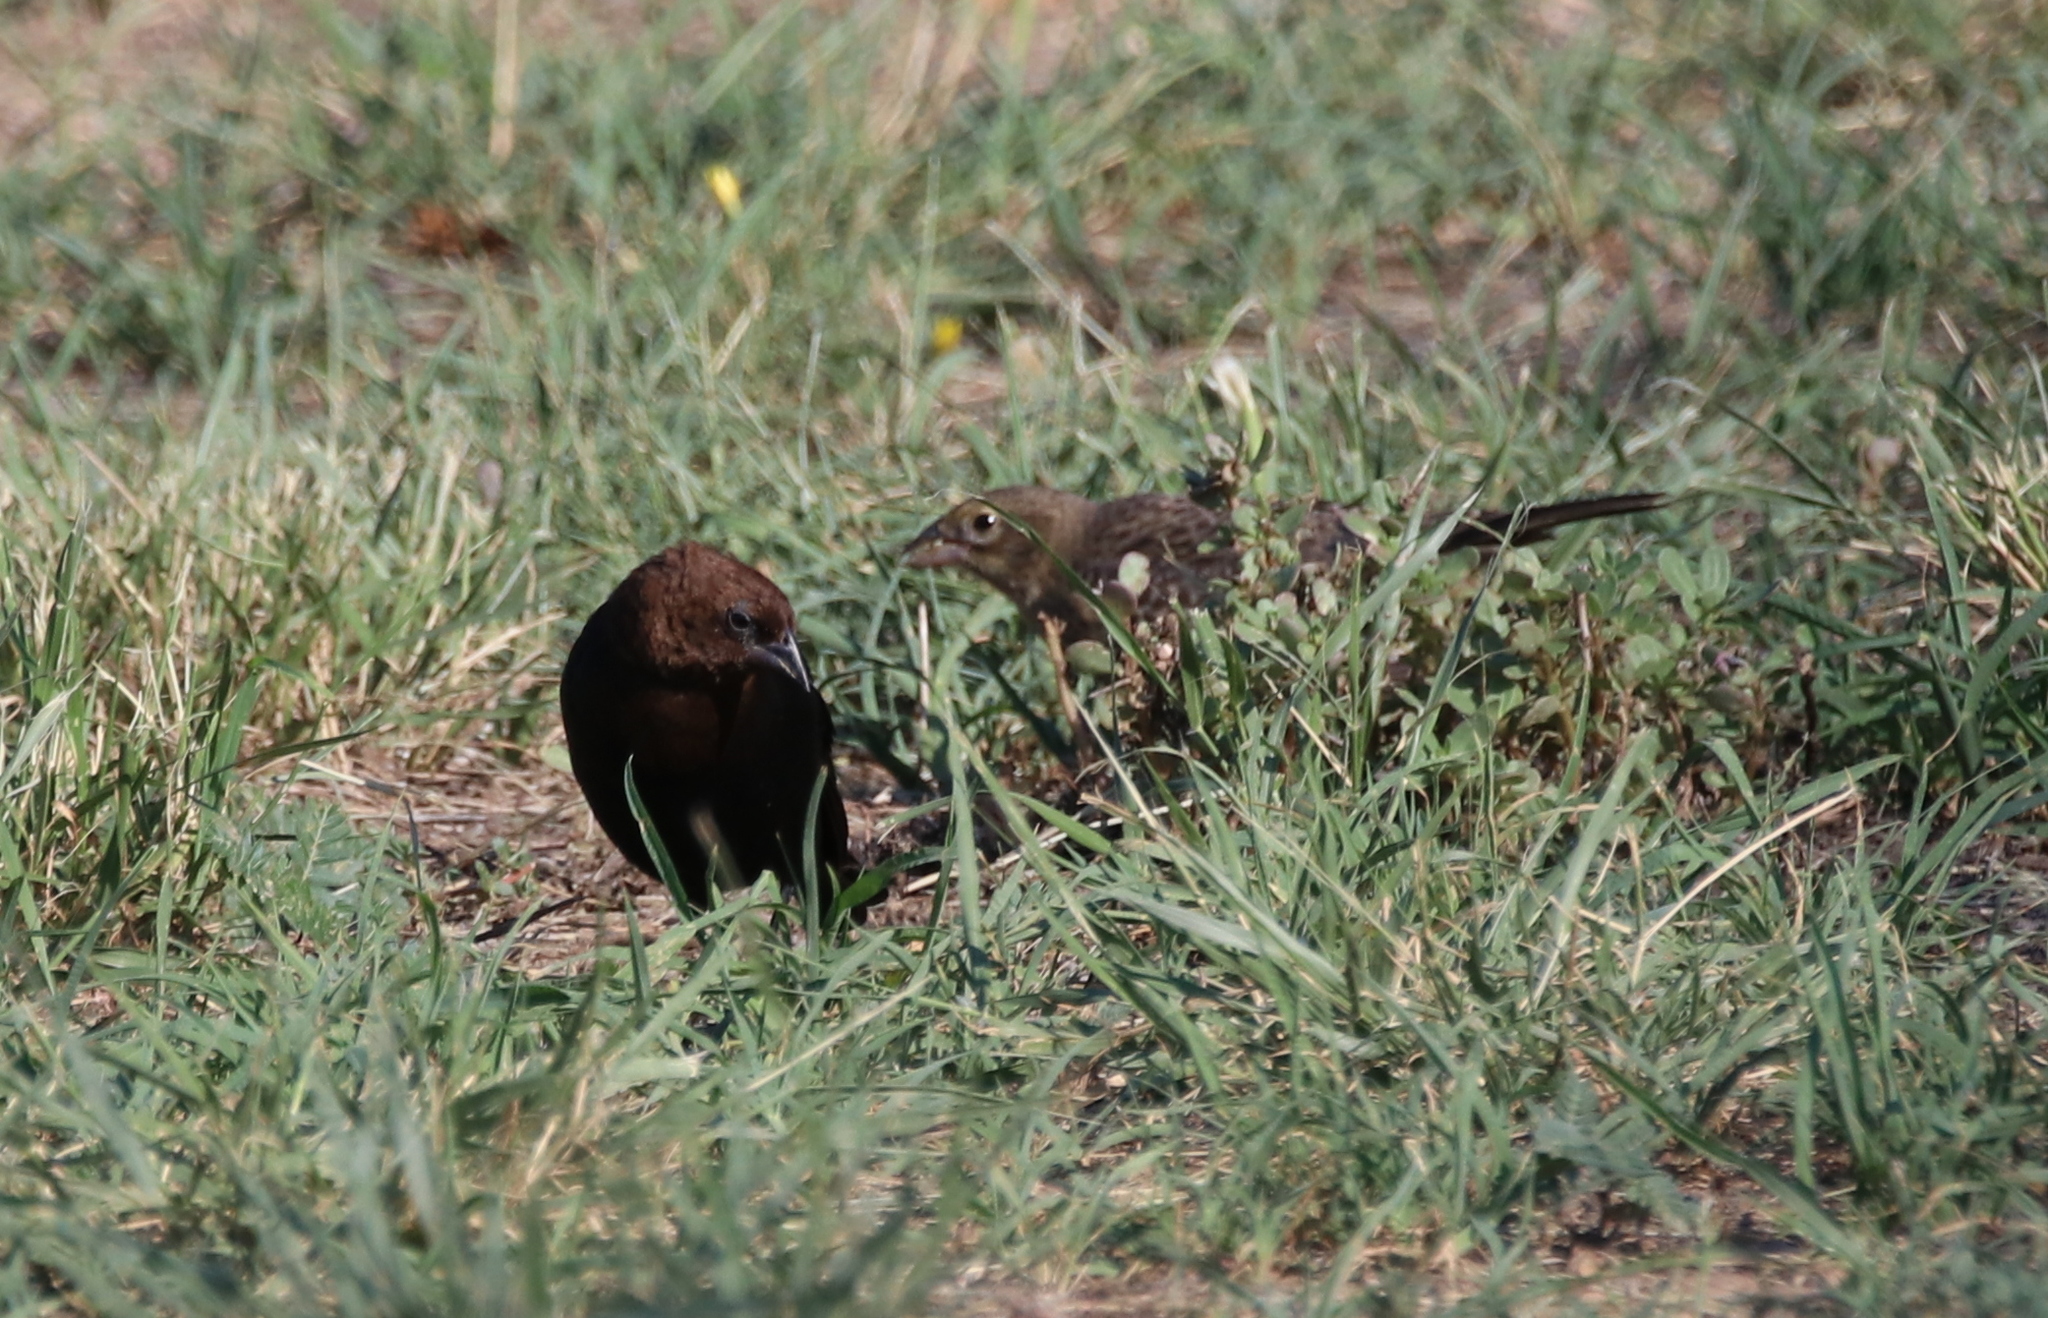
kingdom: Animalia
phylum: Chordata
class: Aves
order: Passeriformes
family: Icteridae
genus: Molothrus
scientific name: Molothrus ater
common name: Brown-headed cowbird
